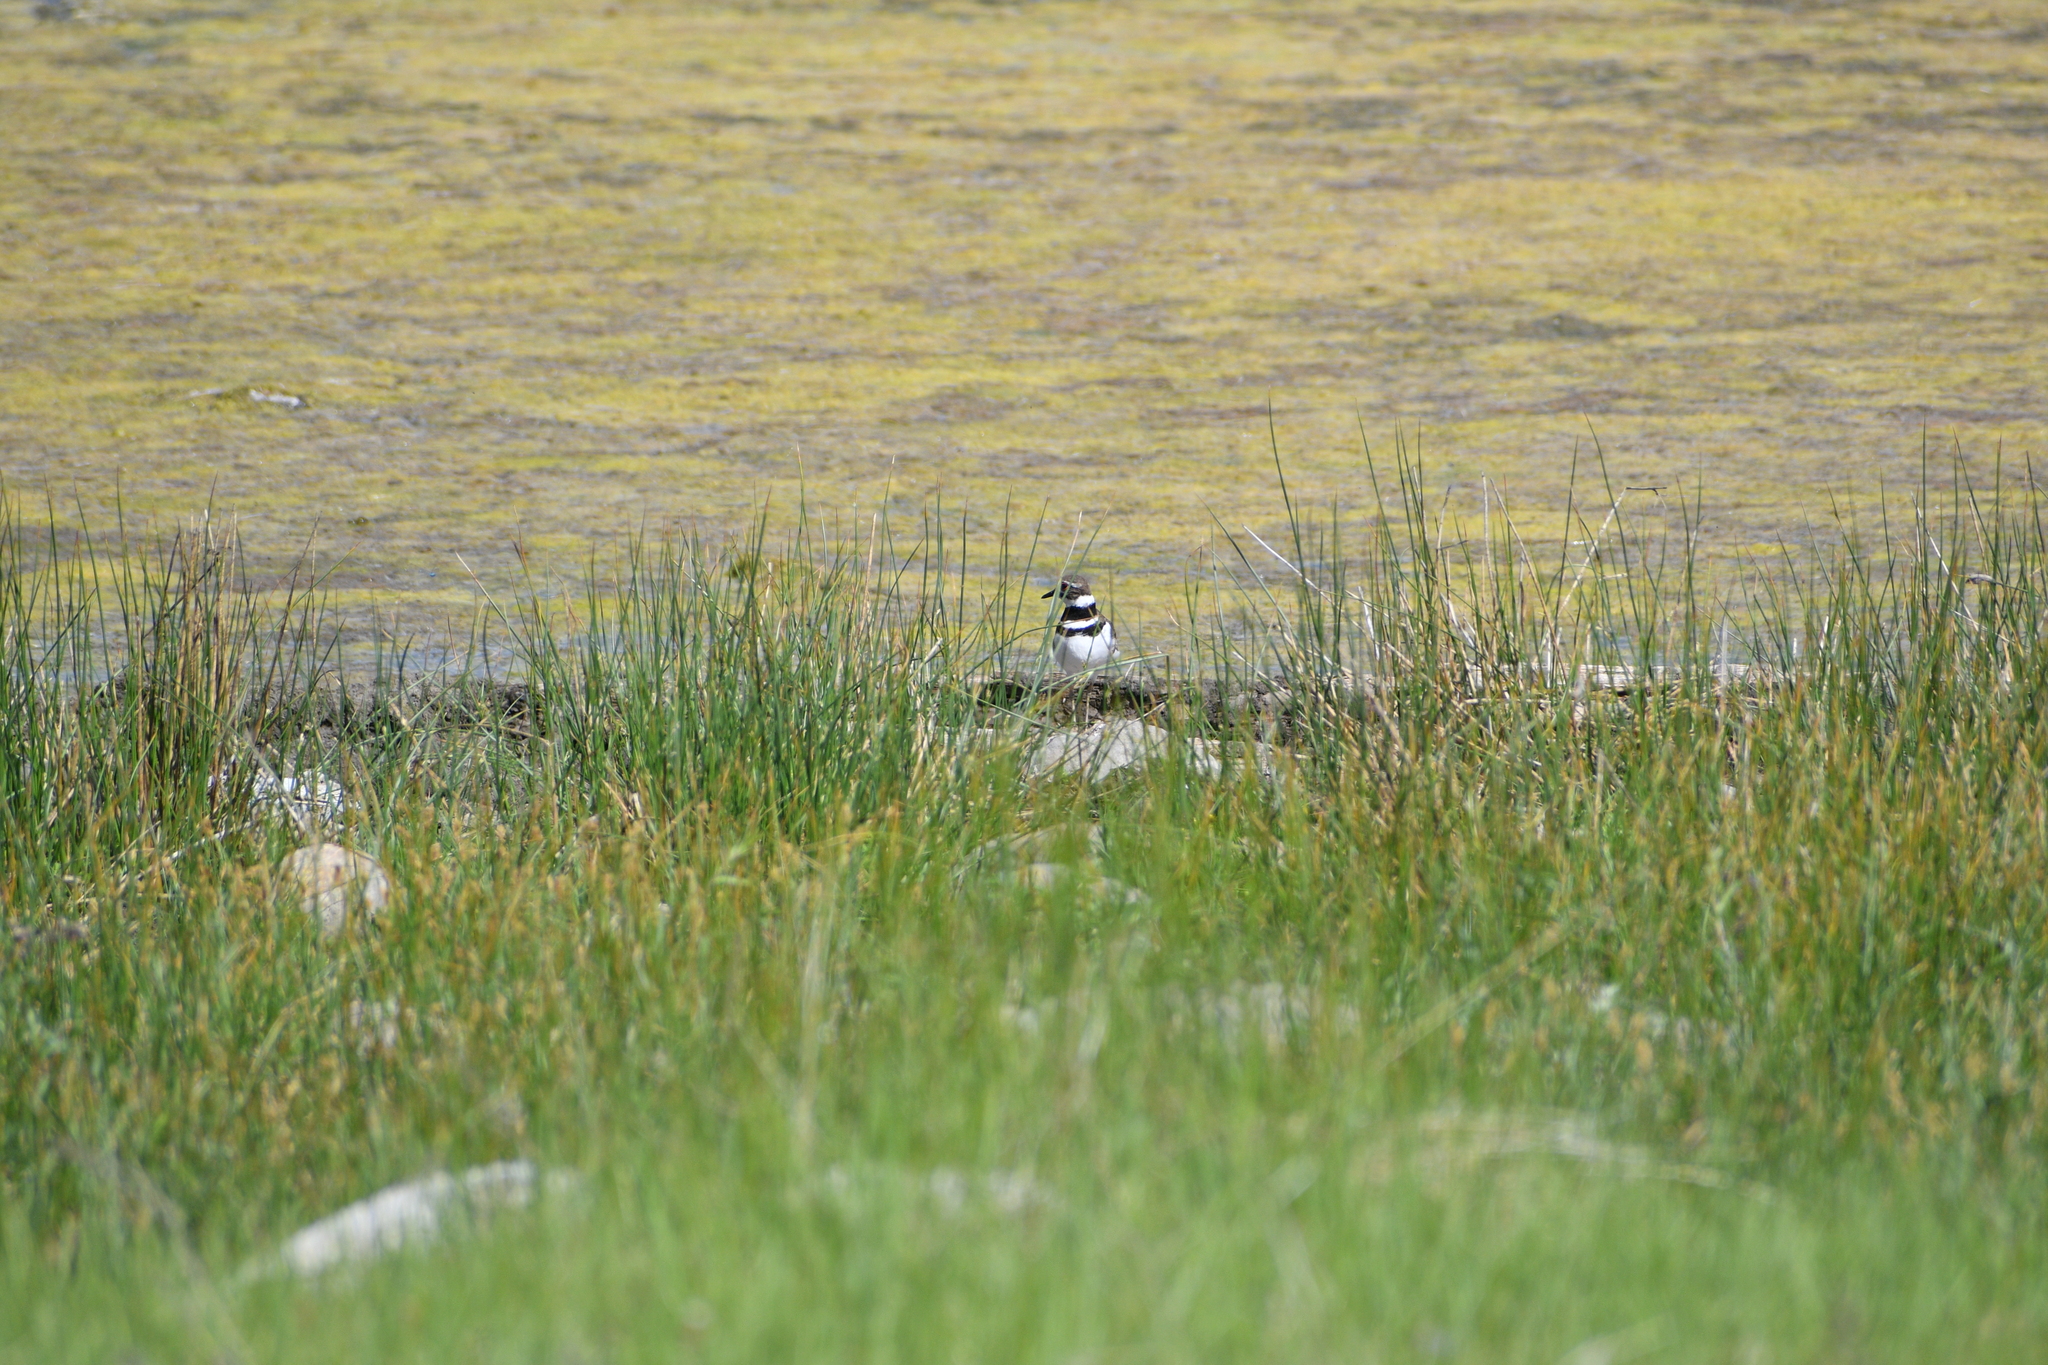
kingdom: Animalia
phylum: Chordata
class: Aves
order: Charadriiformes
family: Charadriidae
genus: Charadrius
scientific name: Charadrius vociferus
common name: Killdeer
